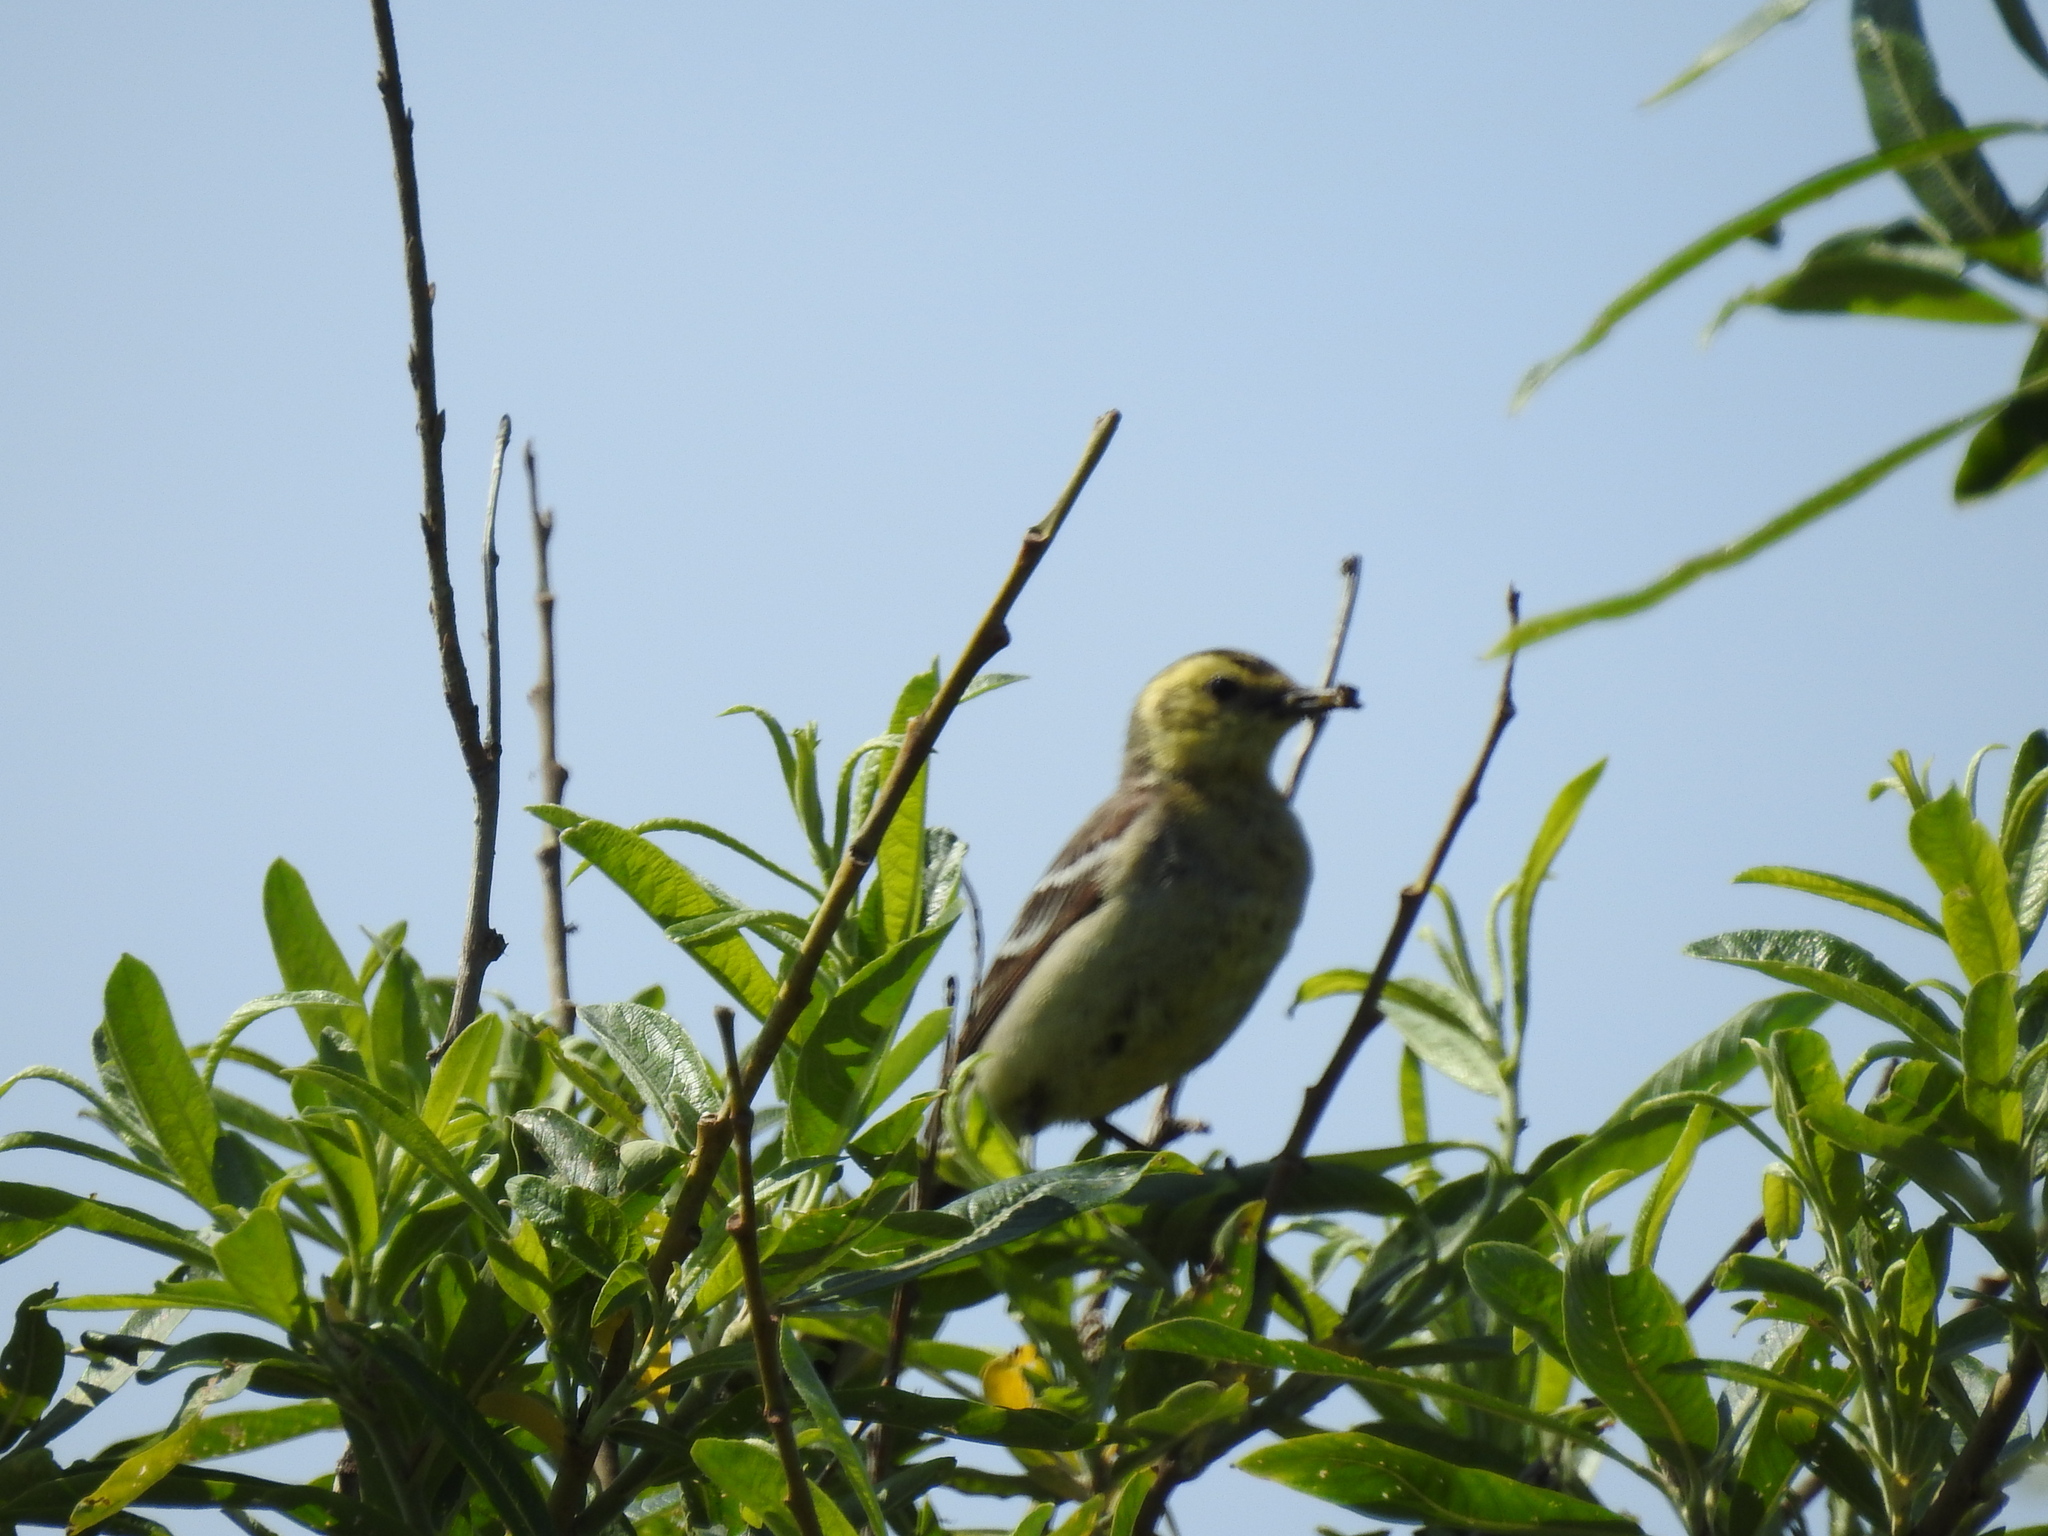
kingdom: Animalia
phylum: Chordata
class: Aves
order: Passeriformes
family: Motacillidae
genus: Motacilla
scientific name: Motacilla citreola
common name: Citrine wagtail
